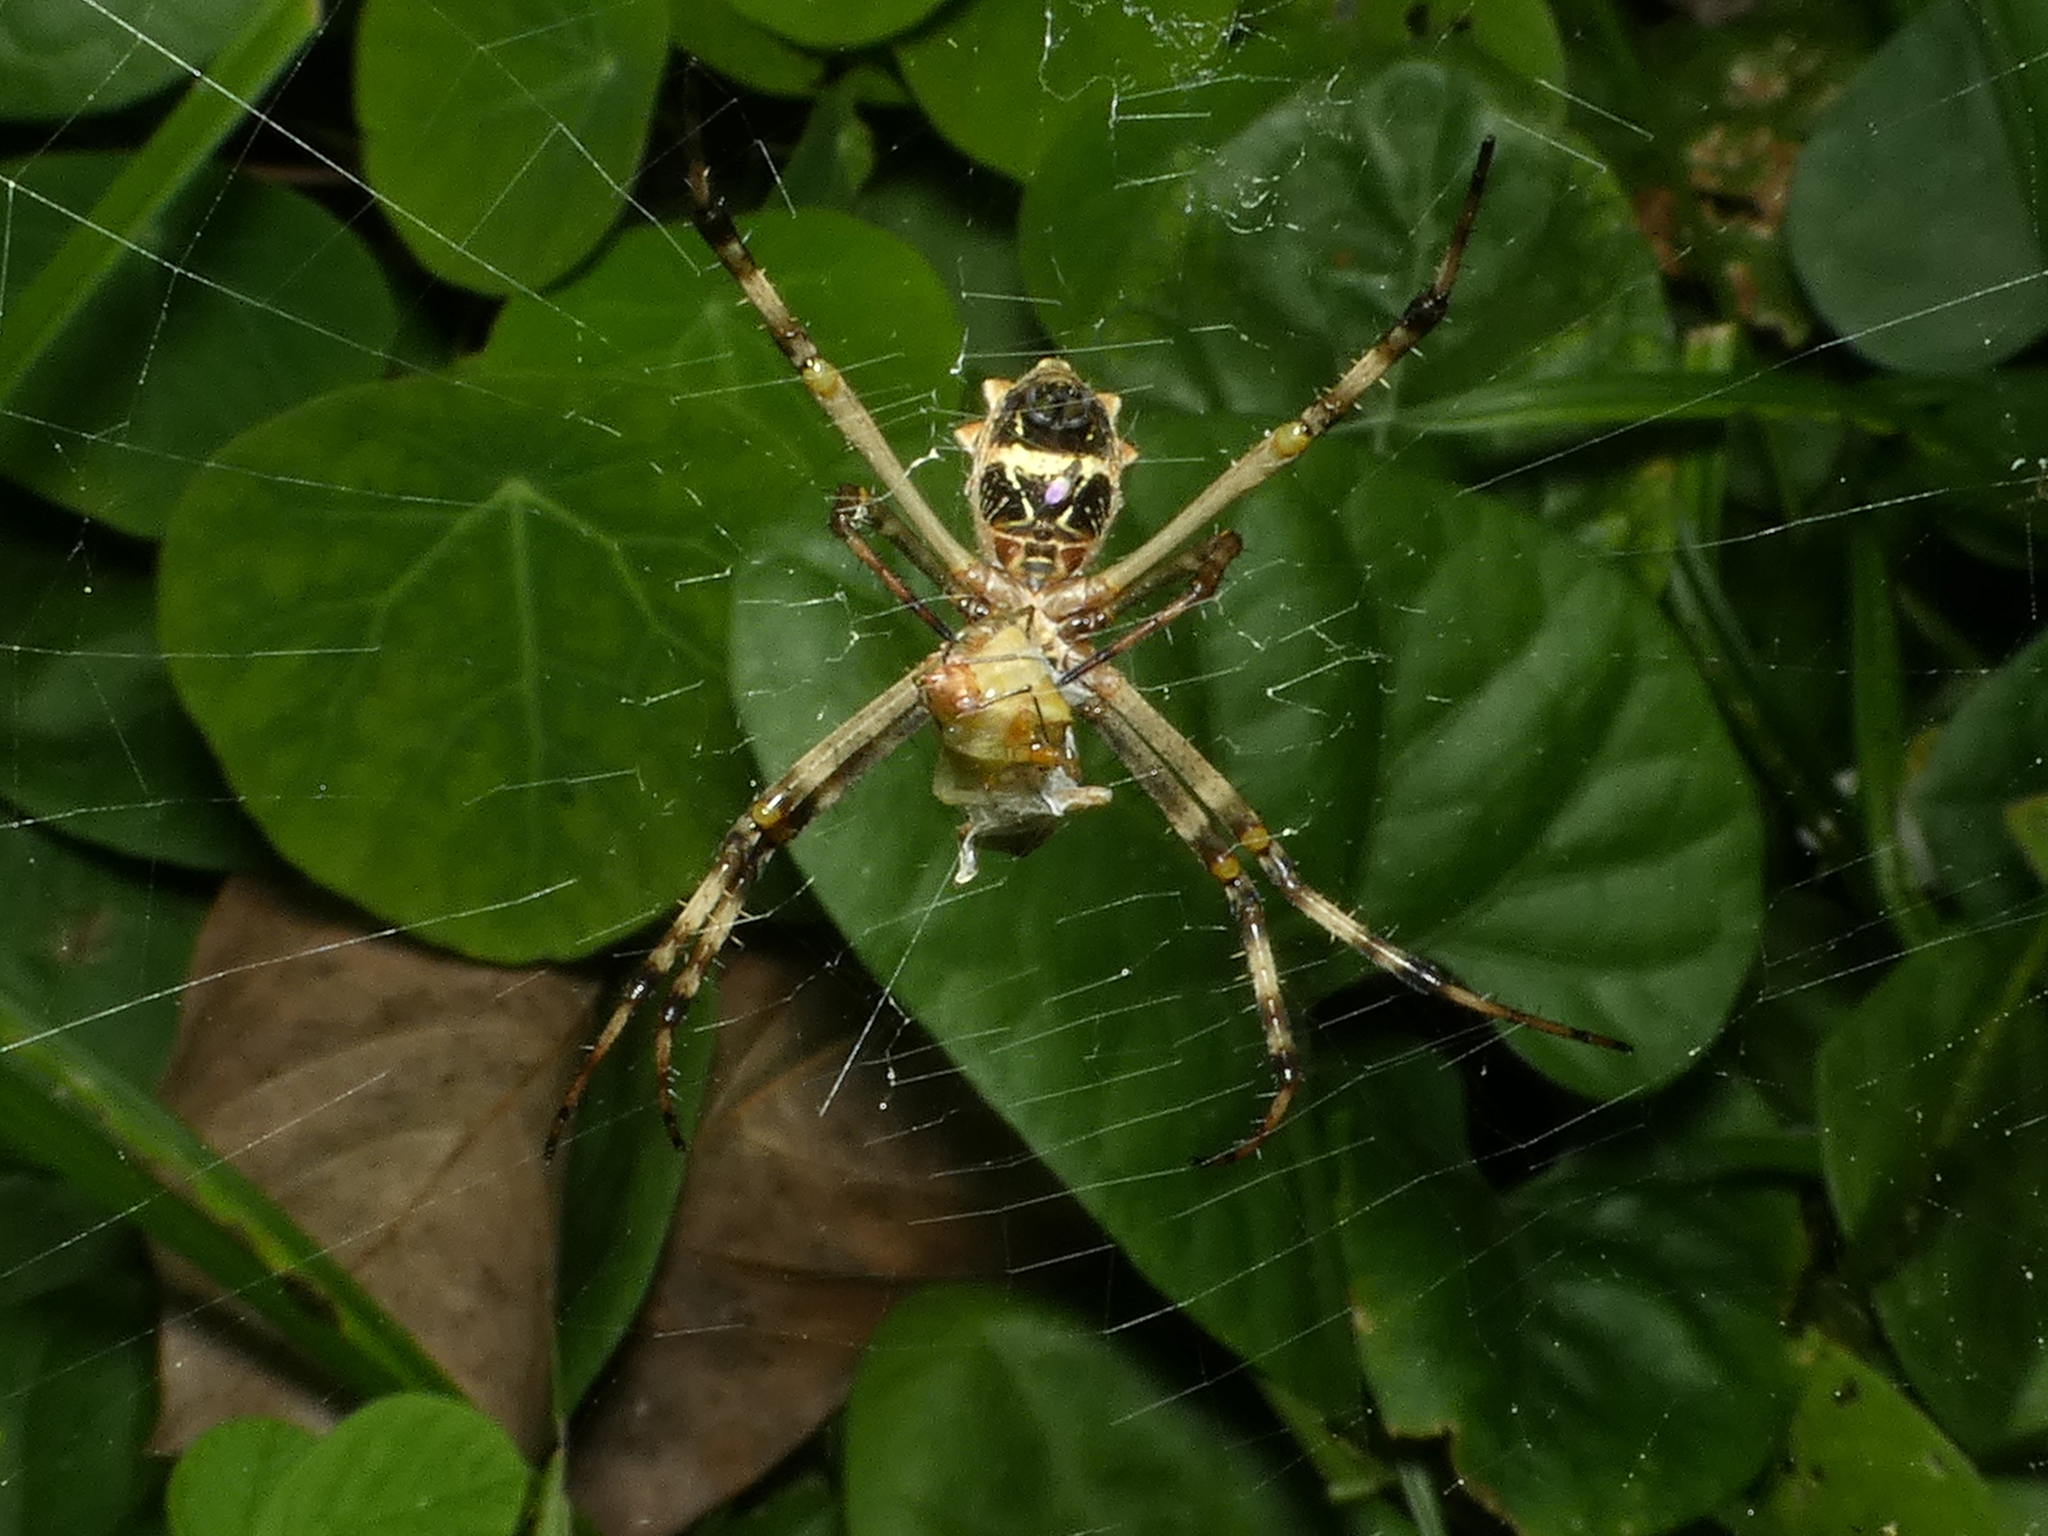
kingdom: Animalia
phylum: Arthropoda
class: Arachnida
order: Araneae
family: Araneidae
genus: Argiope
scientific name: Argiope argentata
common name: Orb weavers
